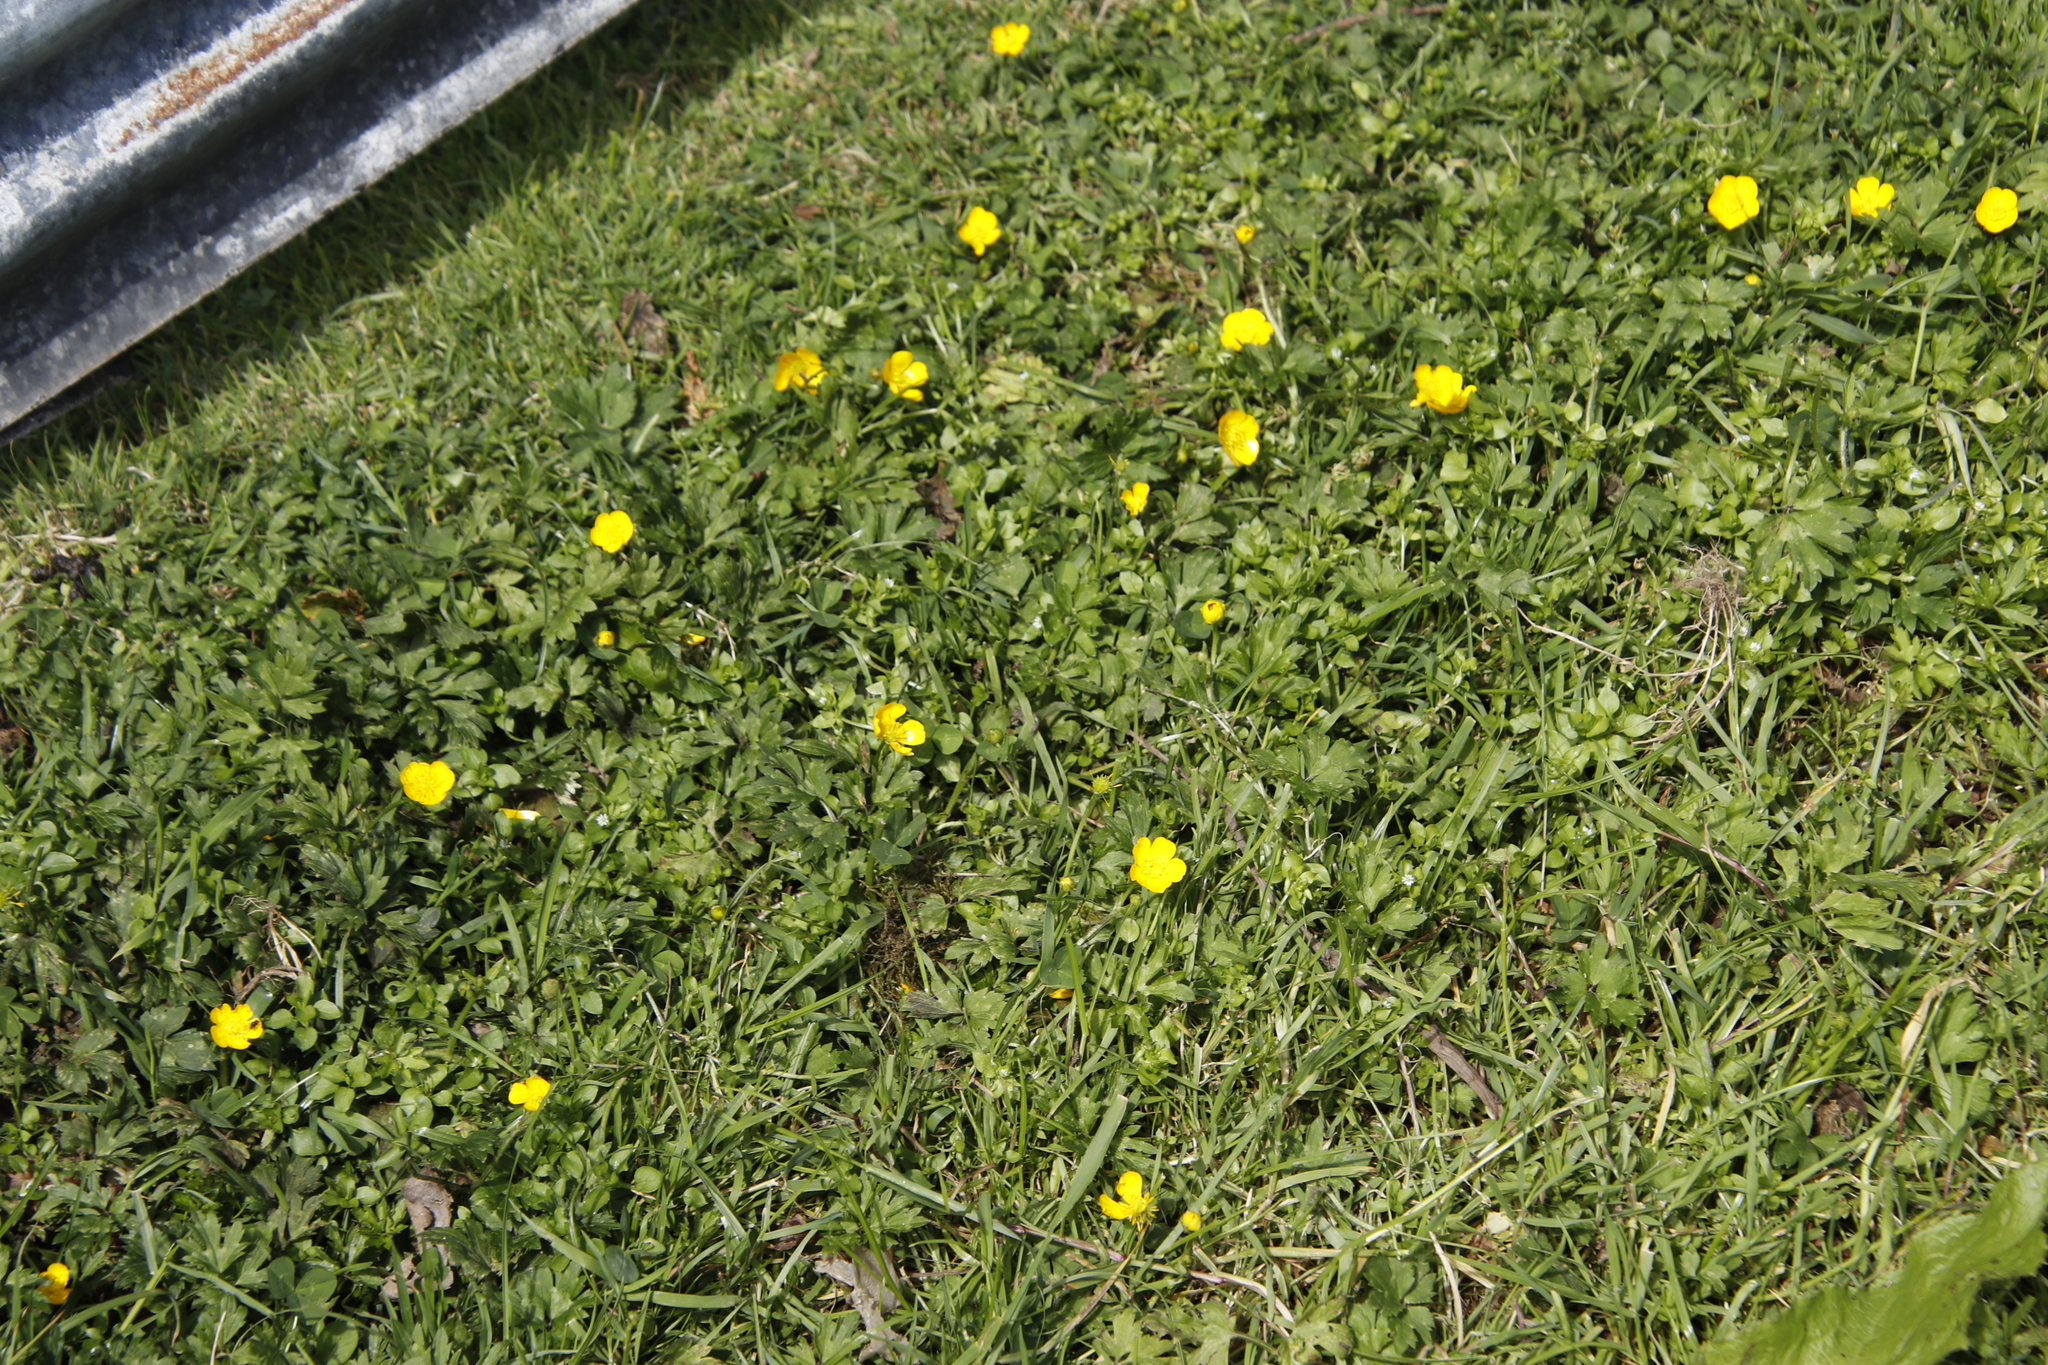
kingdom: Plantae
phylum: Tracheophyta
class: Magnoliopsida
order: Ranunculales
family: Ranunculaceae
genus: Ranunculus
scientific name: Ranunculus repens
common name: Creeping buttercup
